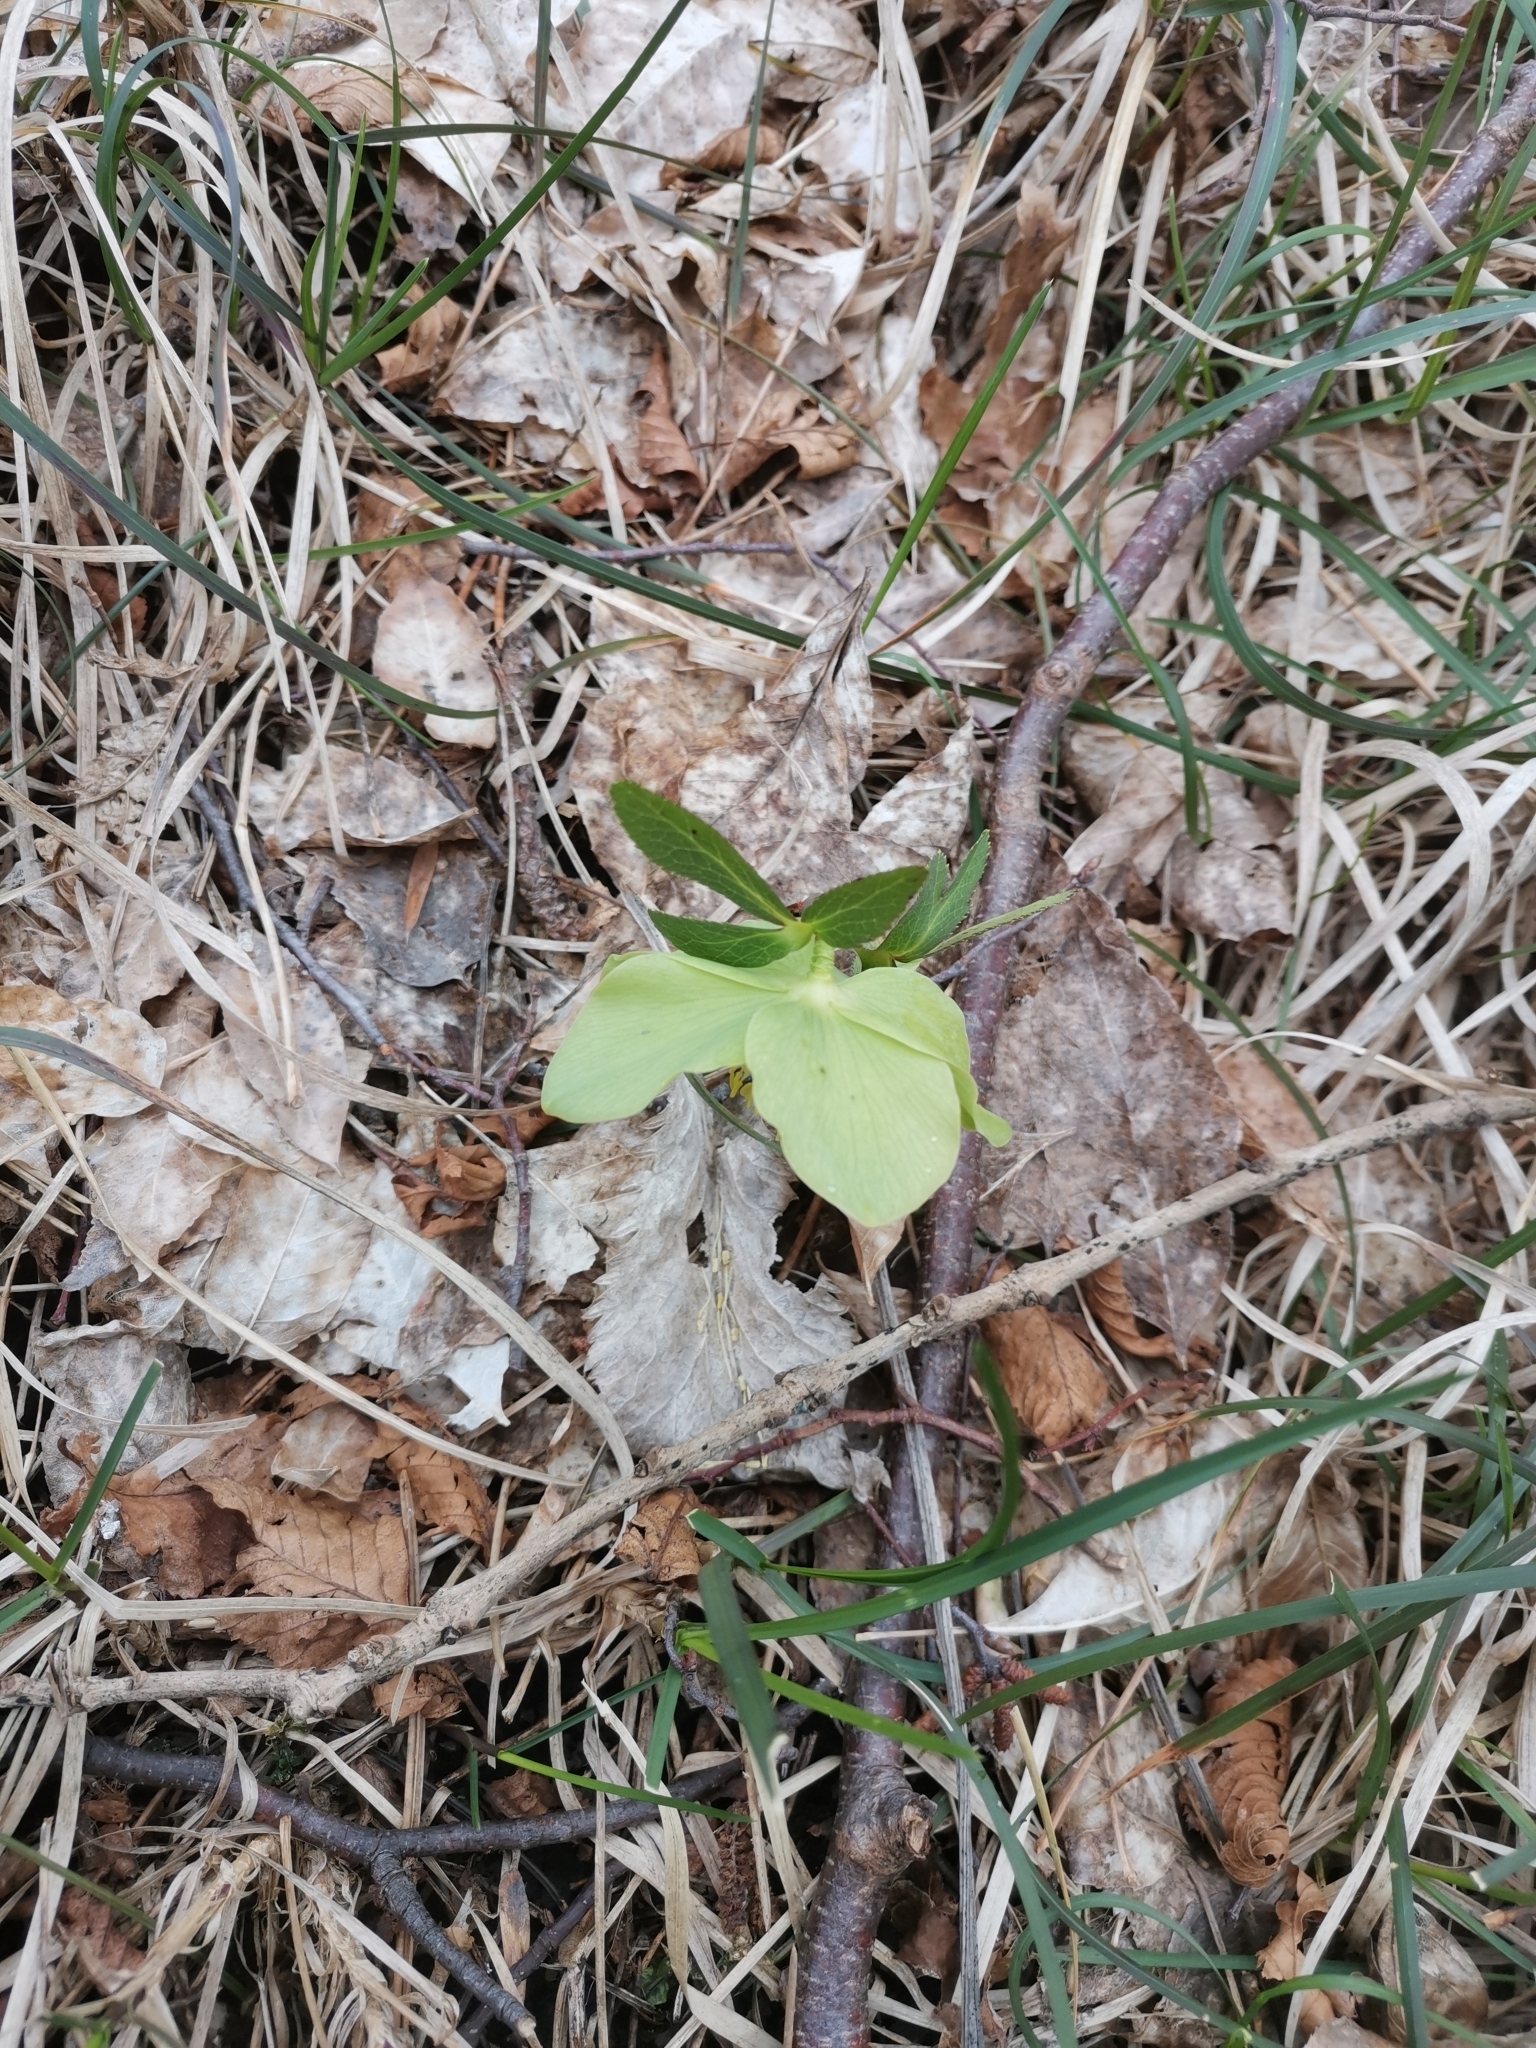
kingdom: Plantae
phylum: Tracheophyta
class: Magnoliopsida
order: Ranunculales
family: Ranunculaceae
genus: Helleborus
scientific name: Helleborus odorus
